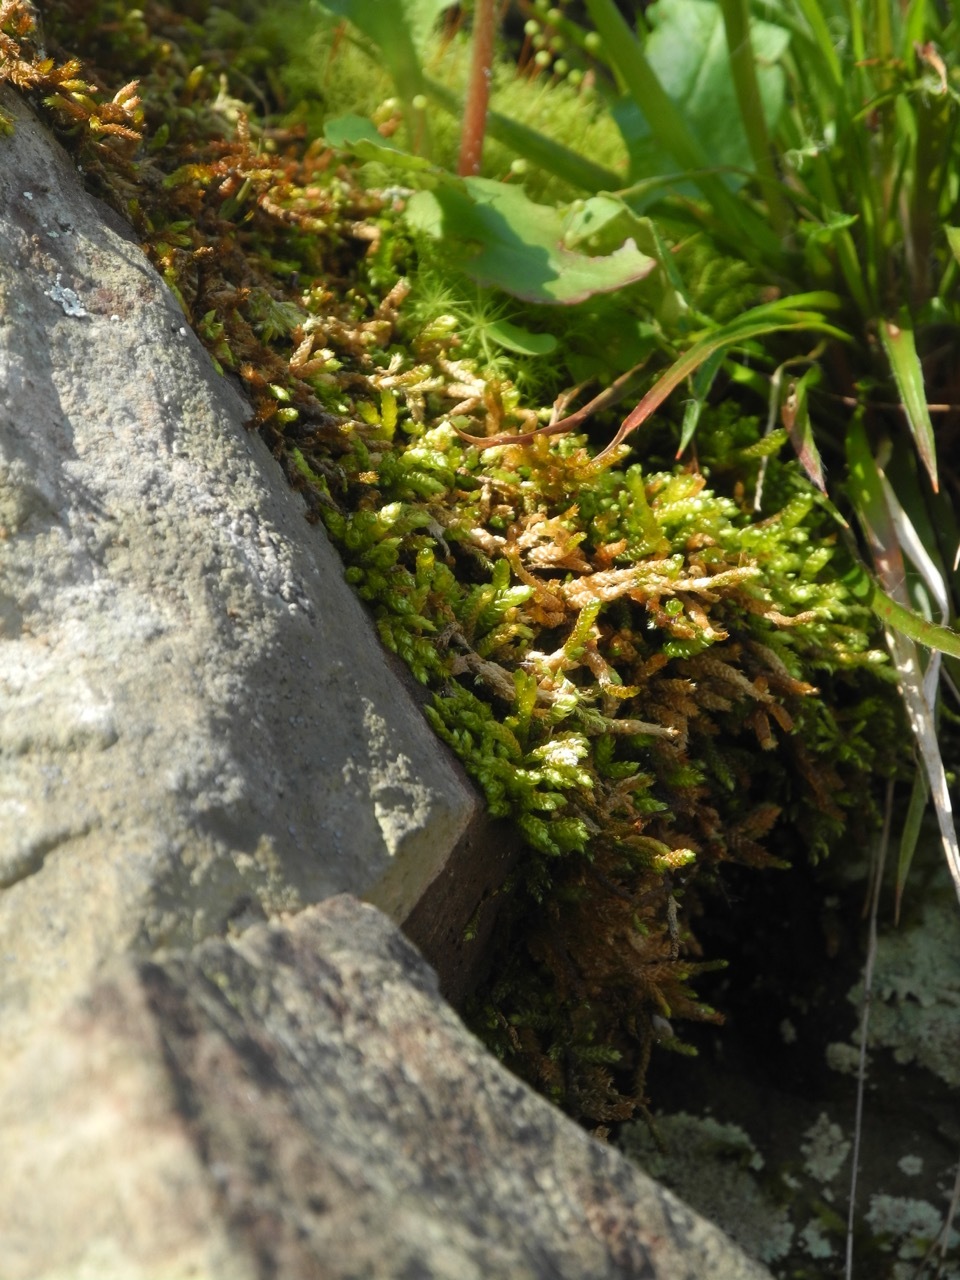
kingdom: Plantae
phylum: Bryophyta
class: Bryopsida
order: Hypnales
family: Brachytheciaceae
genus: Bryoandersonia
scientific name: Bryoandersonia illecebra
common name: Spoon-leaved moss
